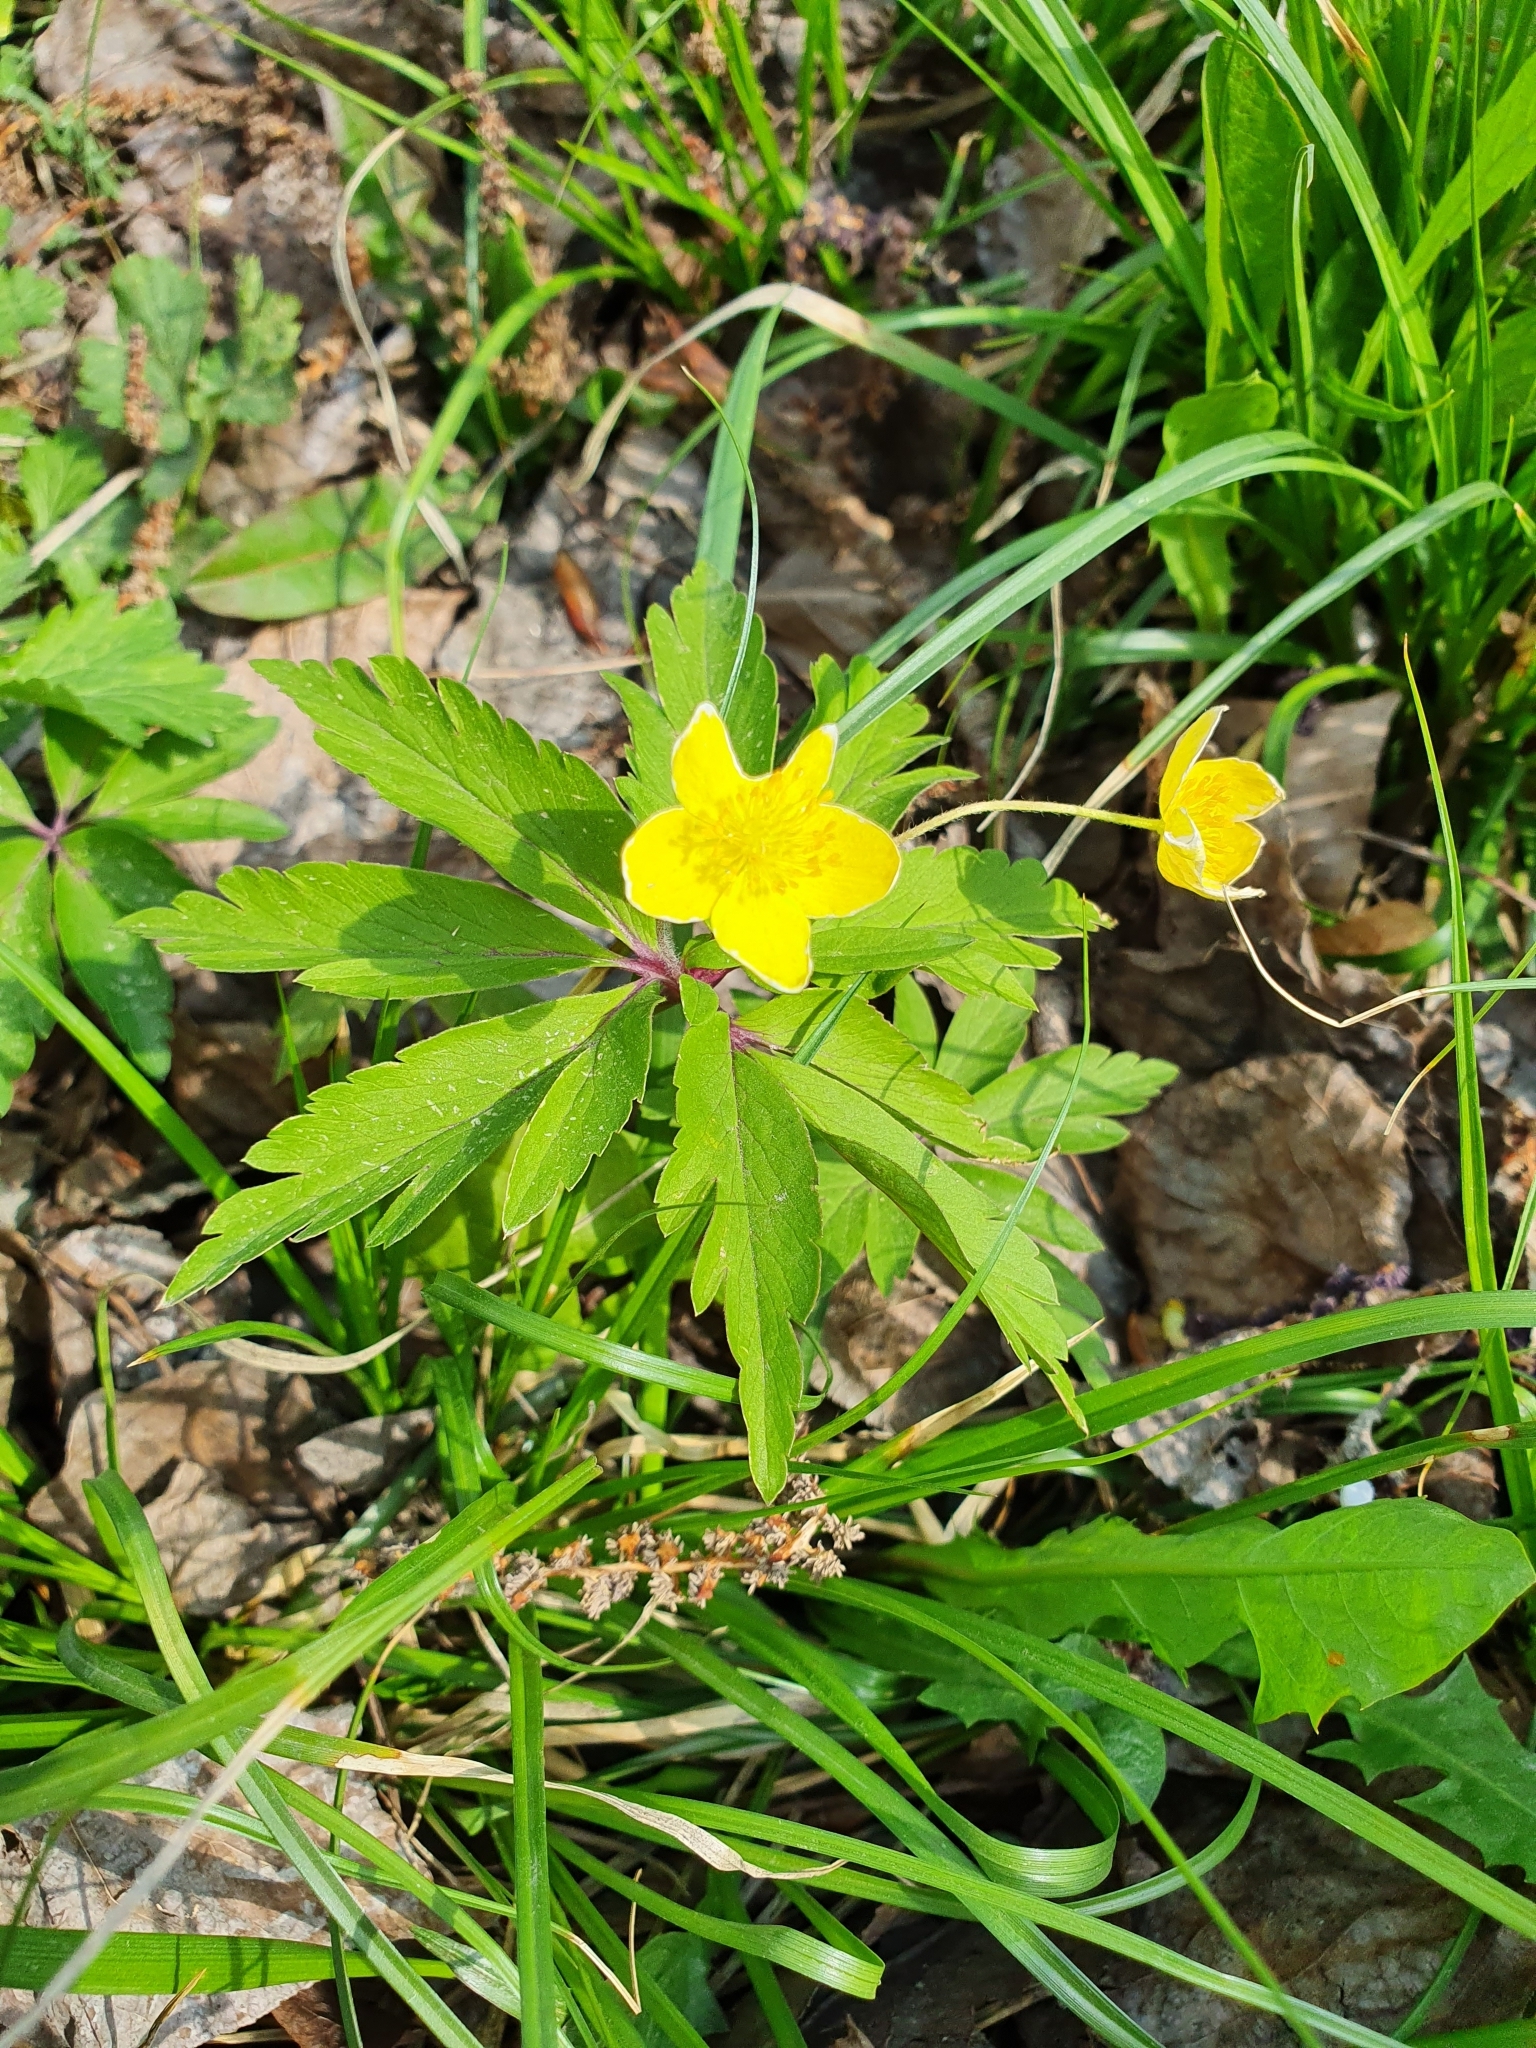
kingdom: Plantae
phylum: Tracheophyta
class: Magnoliopsida
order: Ranunculales
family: Ranunculaceae
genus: Anemone
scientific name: Anemone ranunculoides
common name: Yellow anemone
